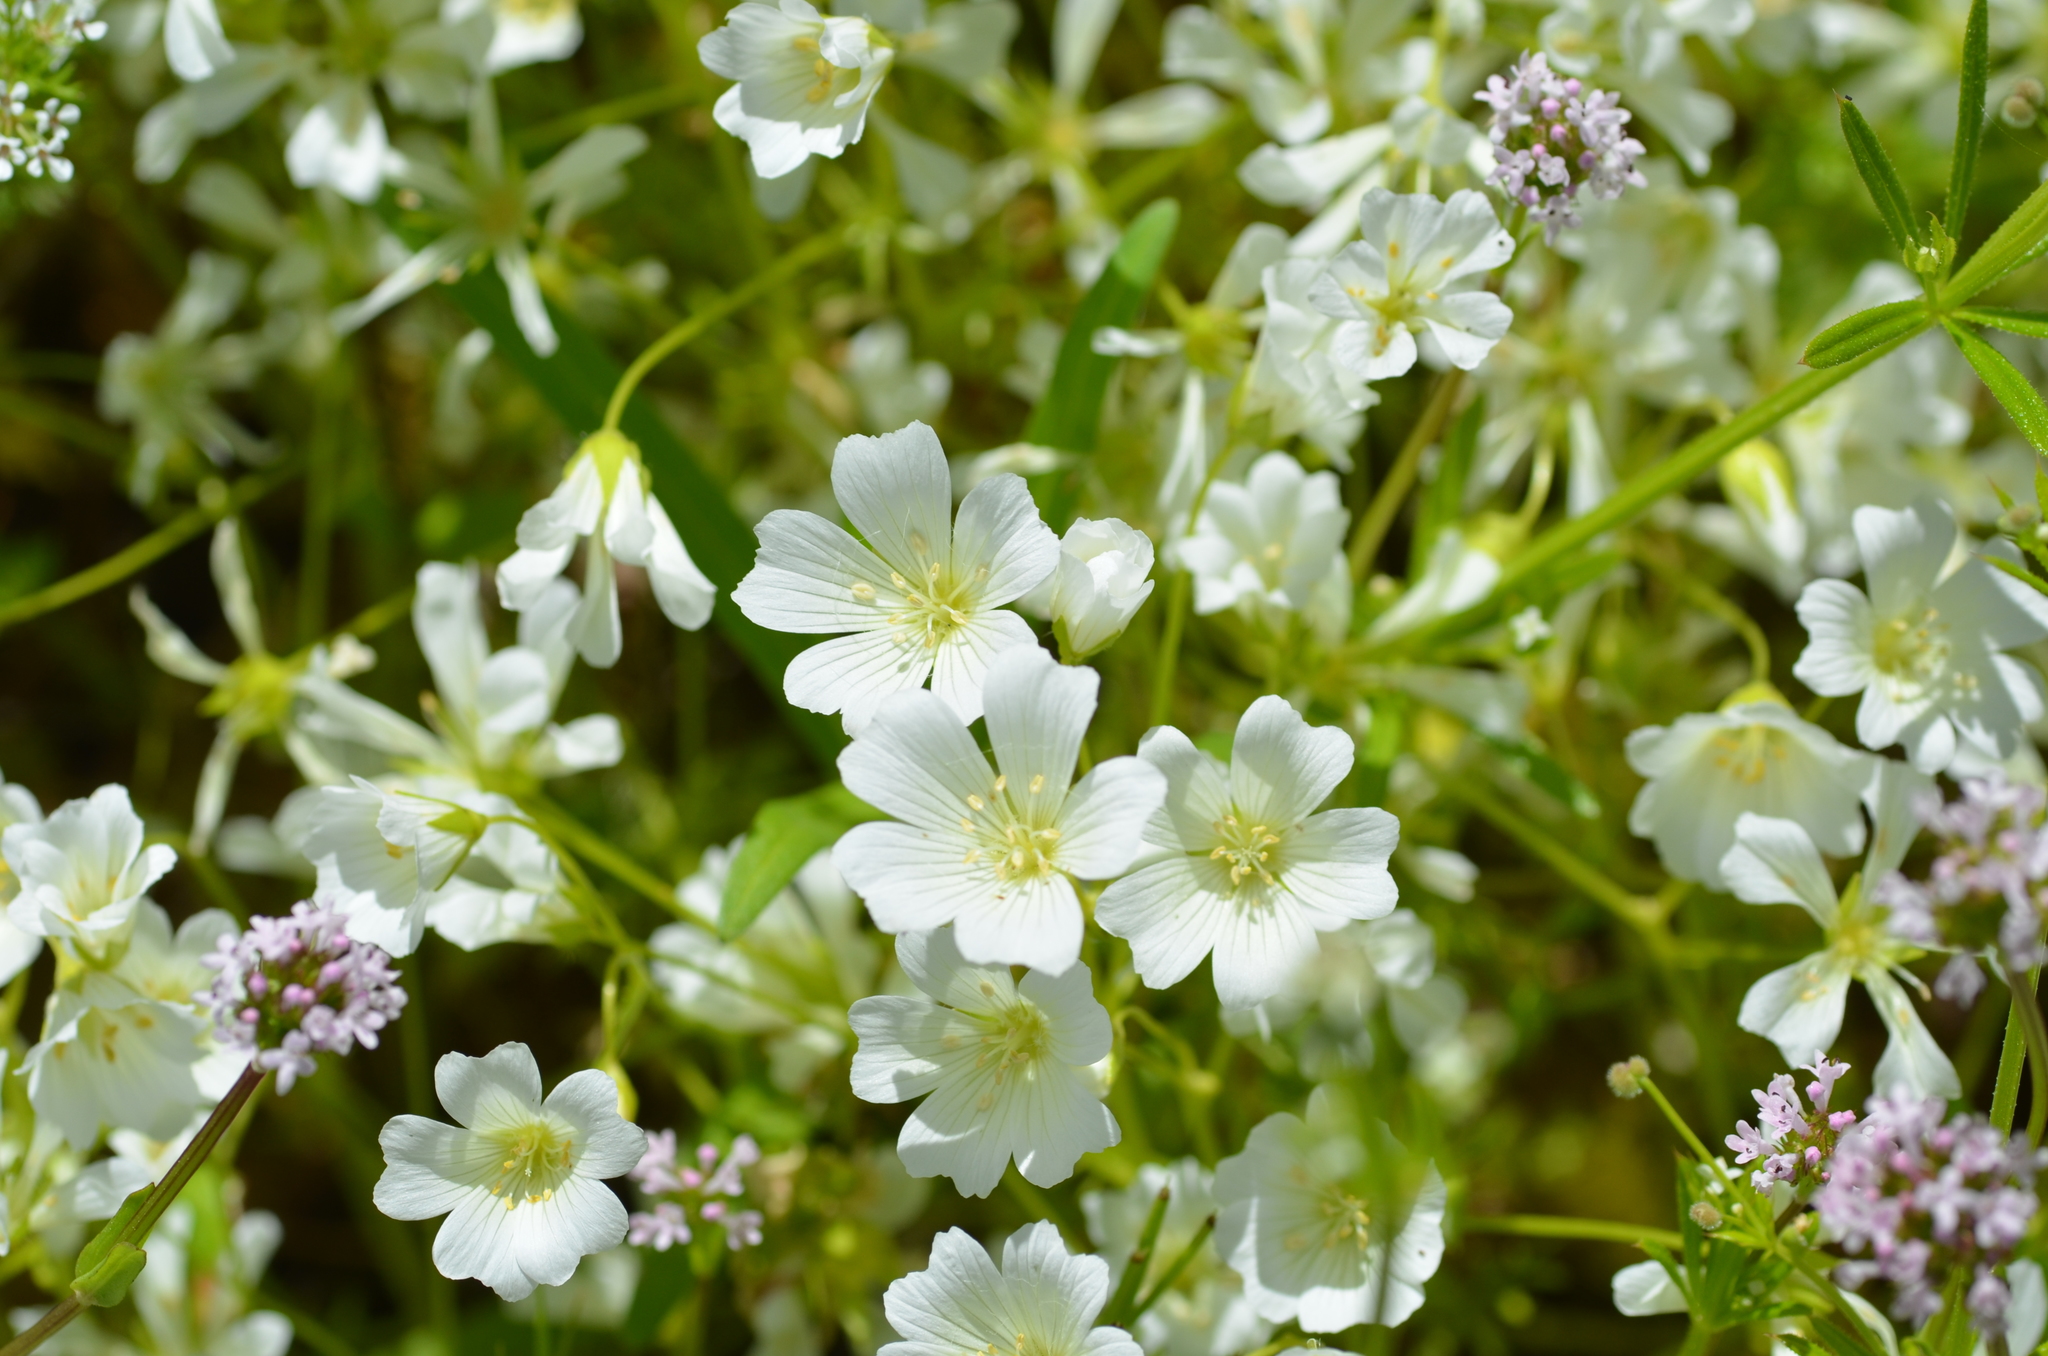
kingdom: Plantae
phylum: Tracheophyta
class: Magnoliopsida
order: Brassicales
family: Limnanthaceae
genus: Limnanthes
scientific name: Limnanthes alba
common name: Meadowfoam
